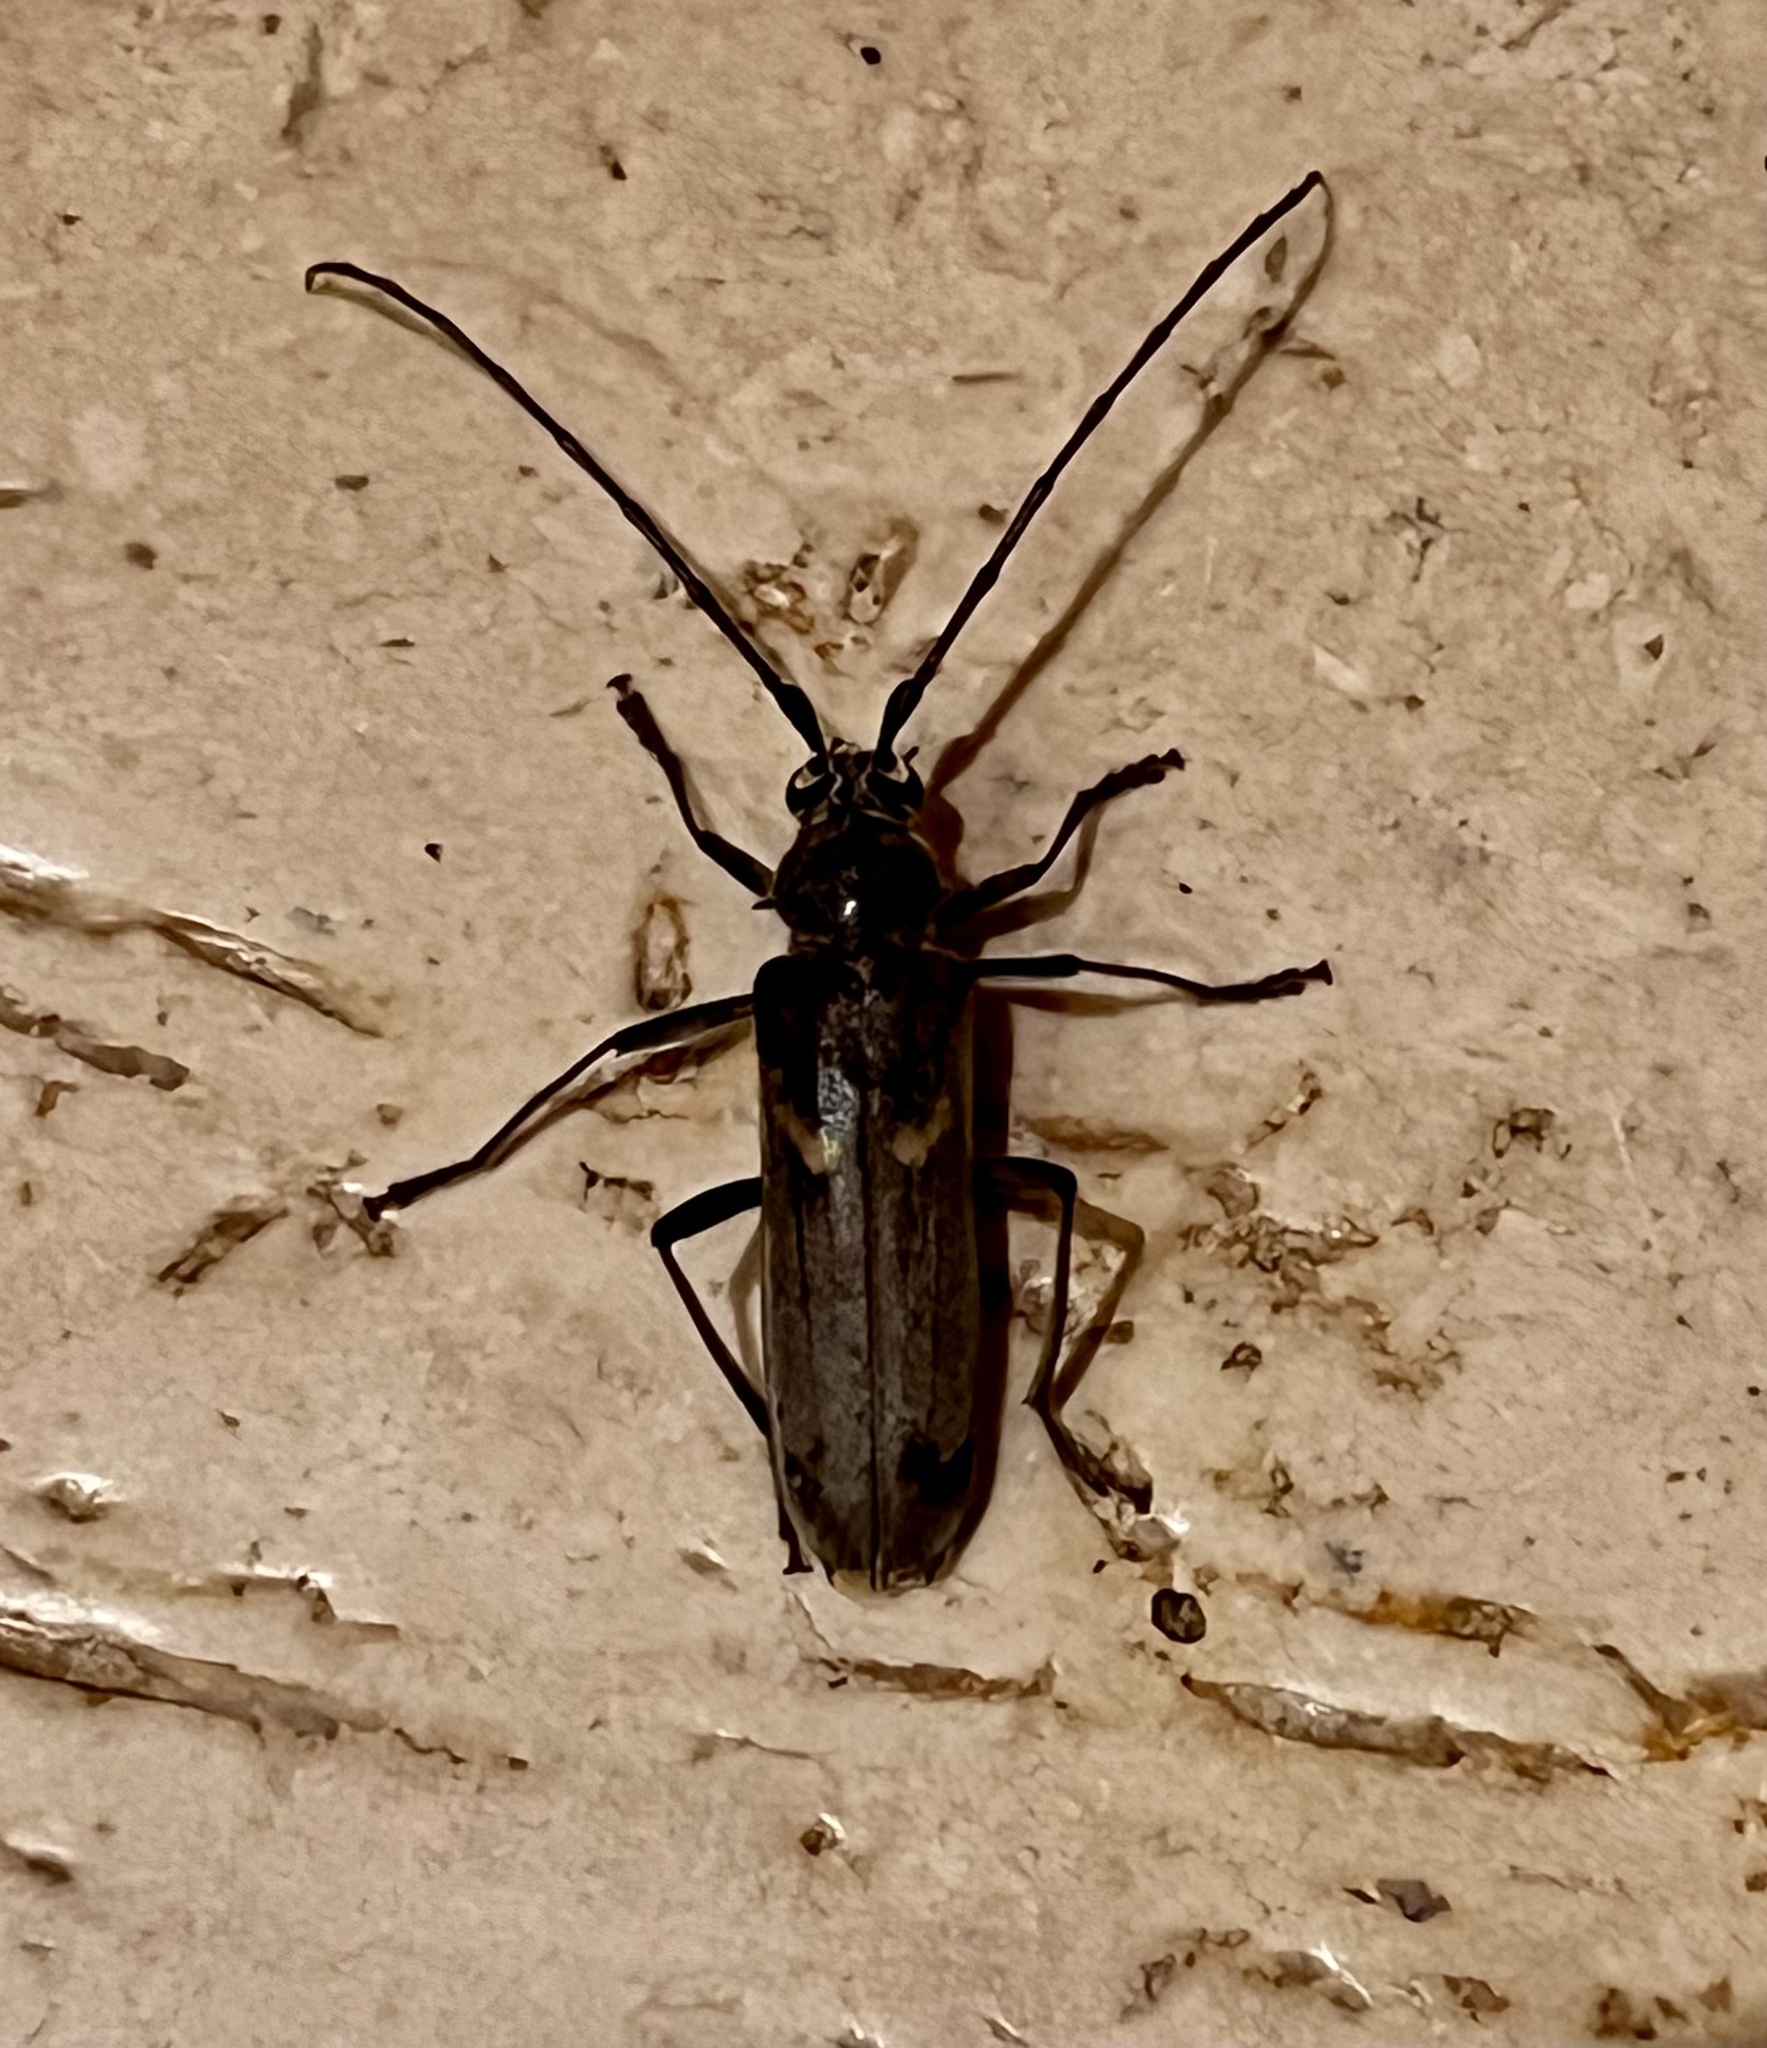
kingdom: Animalia
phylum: Arthropoda
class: Insecta
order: Coleoptera
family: Cerambycidae
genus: Knulliana
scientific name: Knulliana cincta
